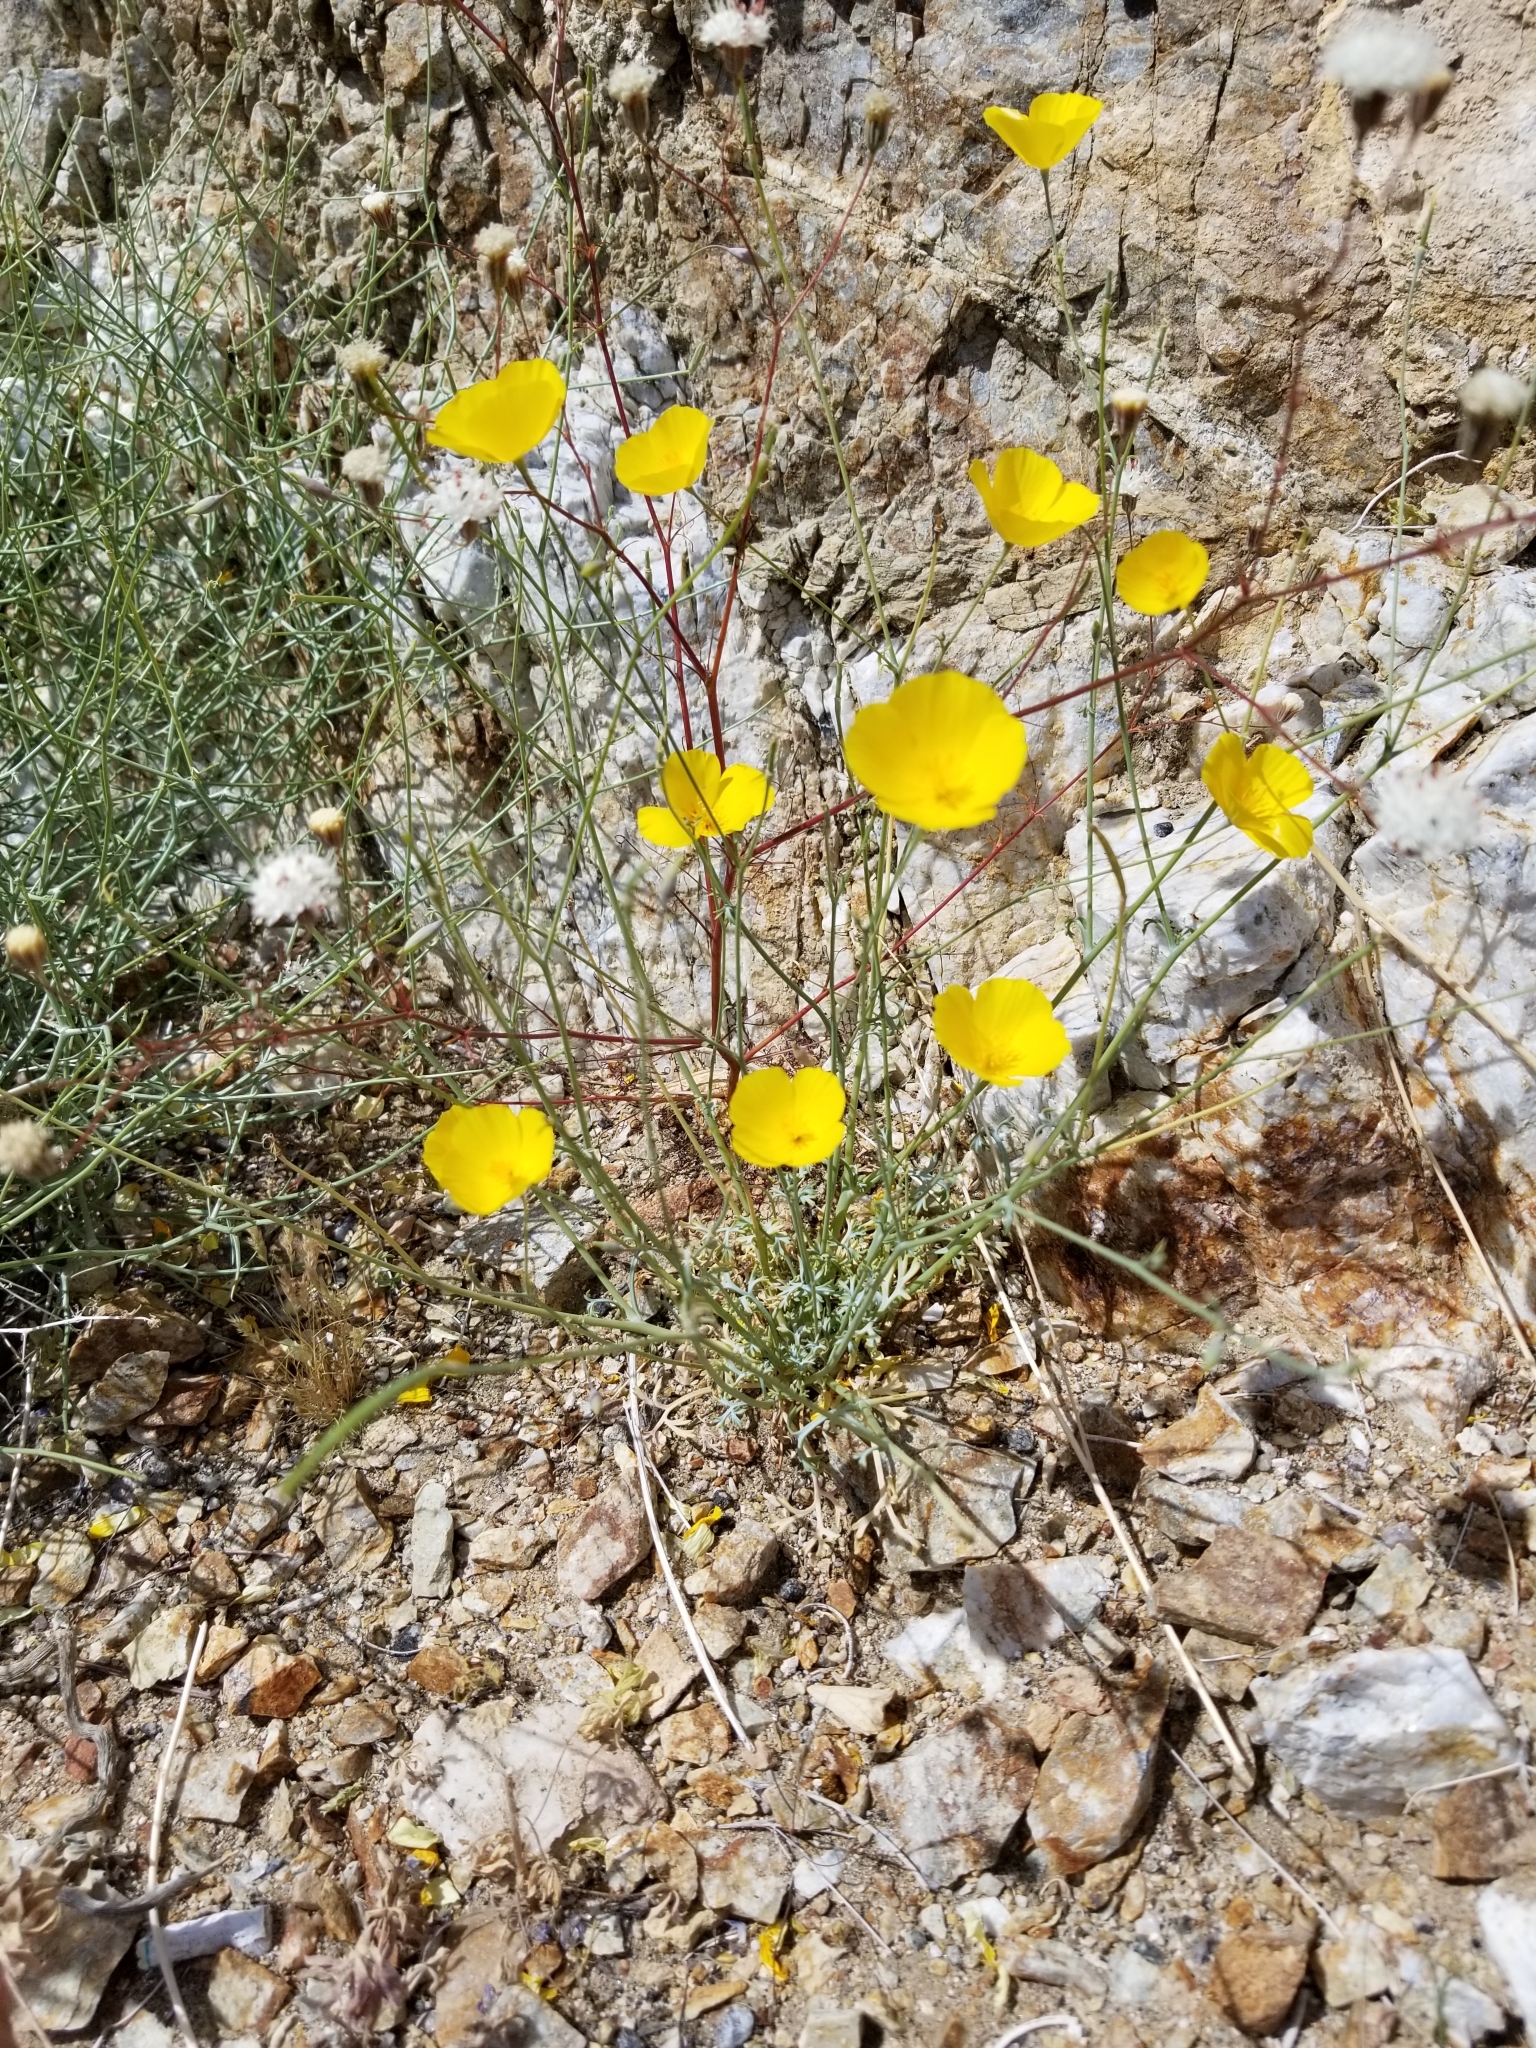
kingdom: Plantae
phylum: Tracheophyta
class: Magnoliopsida
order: Ranunculales
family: Papaveraceae
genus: Eschscholzia
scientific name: Eschscholzia parishii
